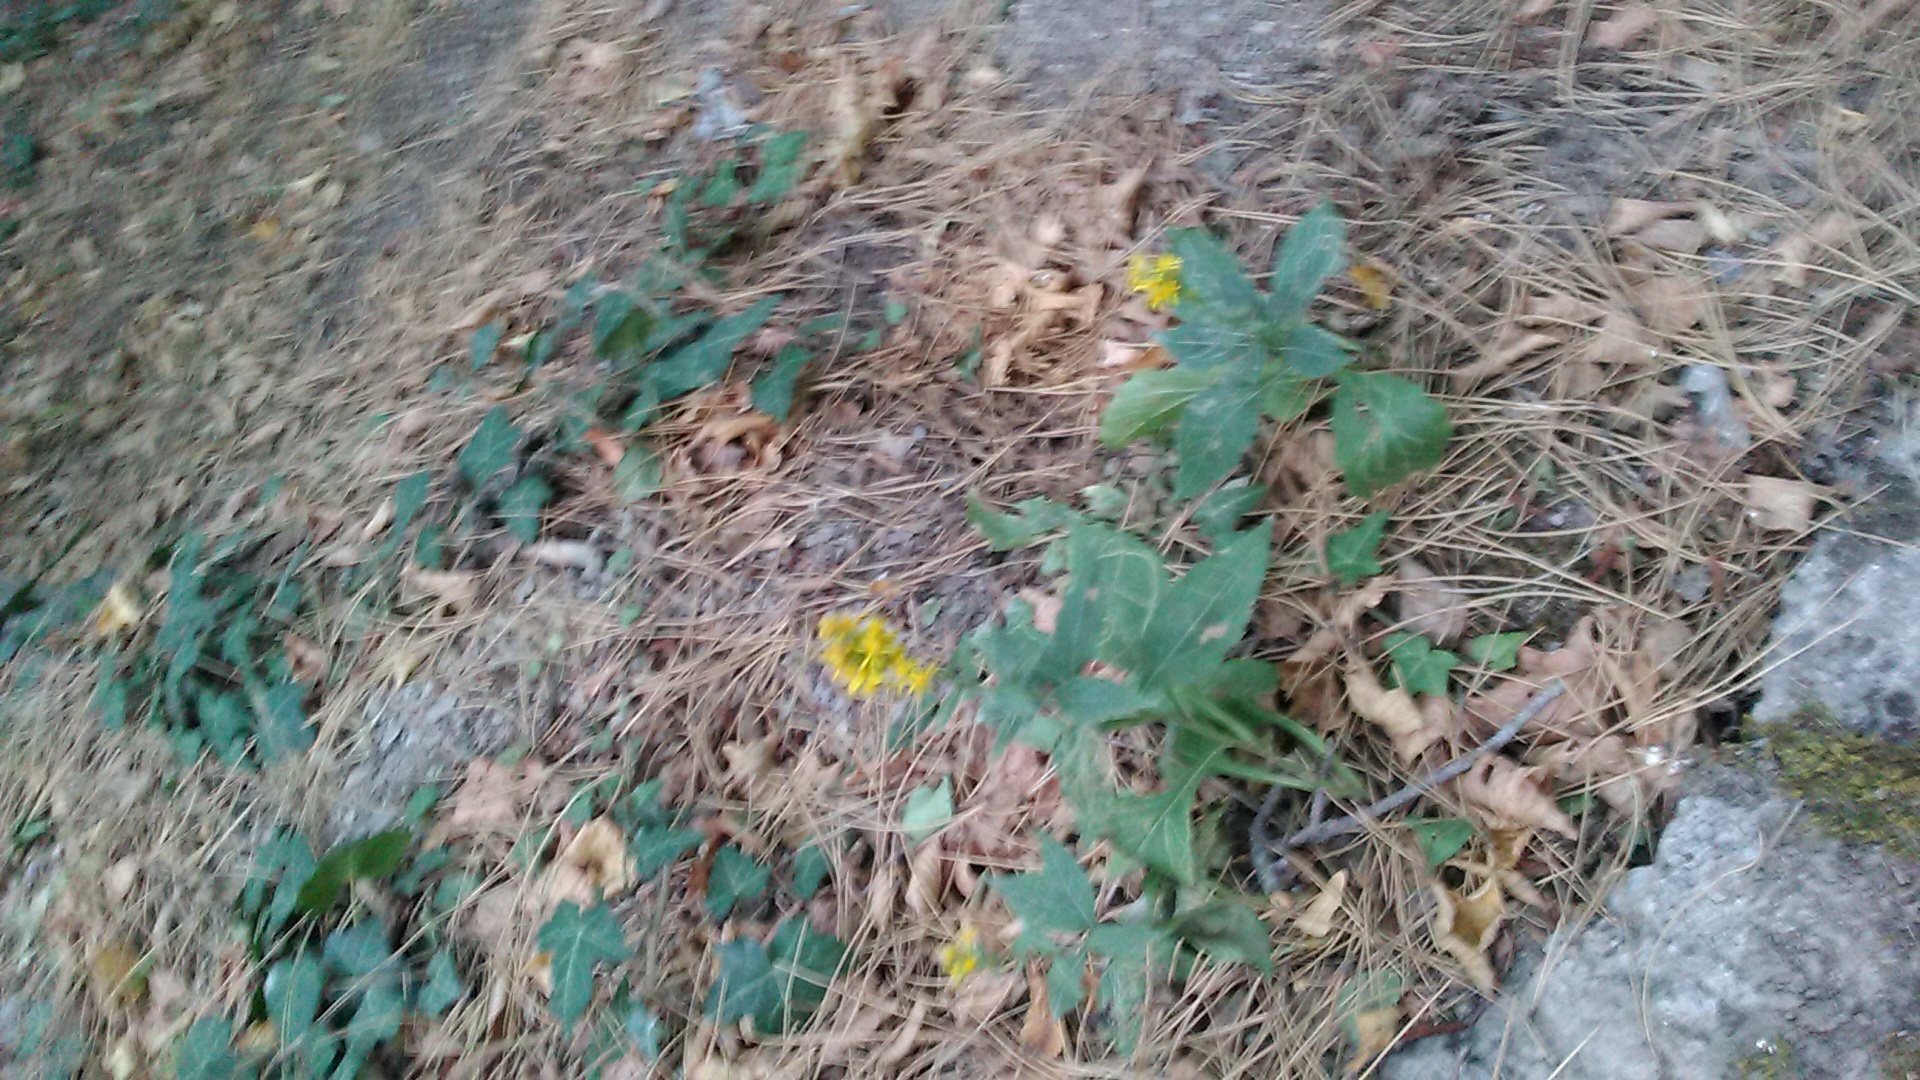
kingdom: Plantae
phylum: Tracheophyta
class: Magnoliopsida
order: Asterales
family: Asteraceae
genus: Solidago
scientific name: Solidago virgaurea
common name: Goldenrod
